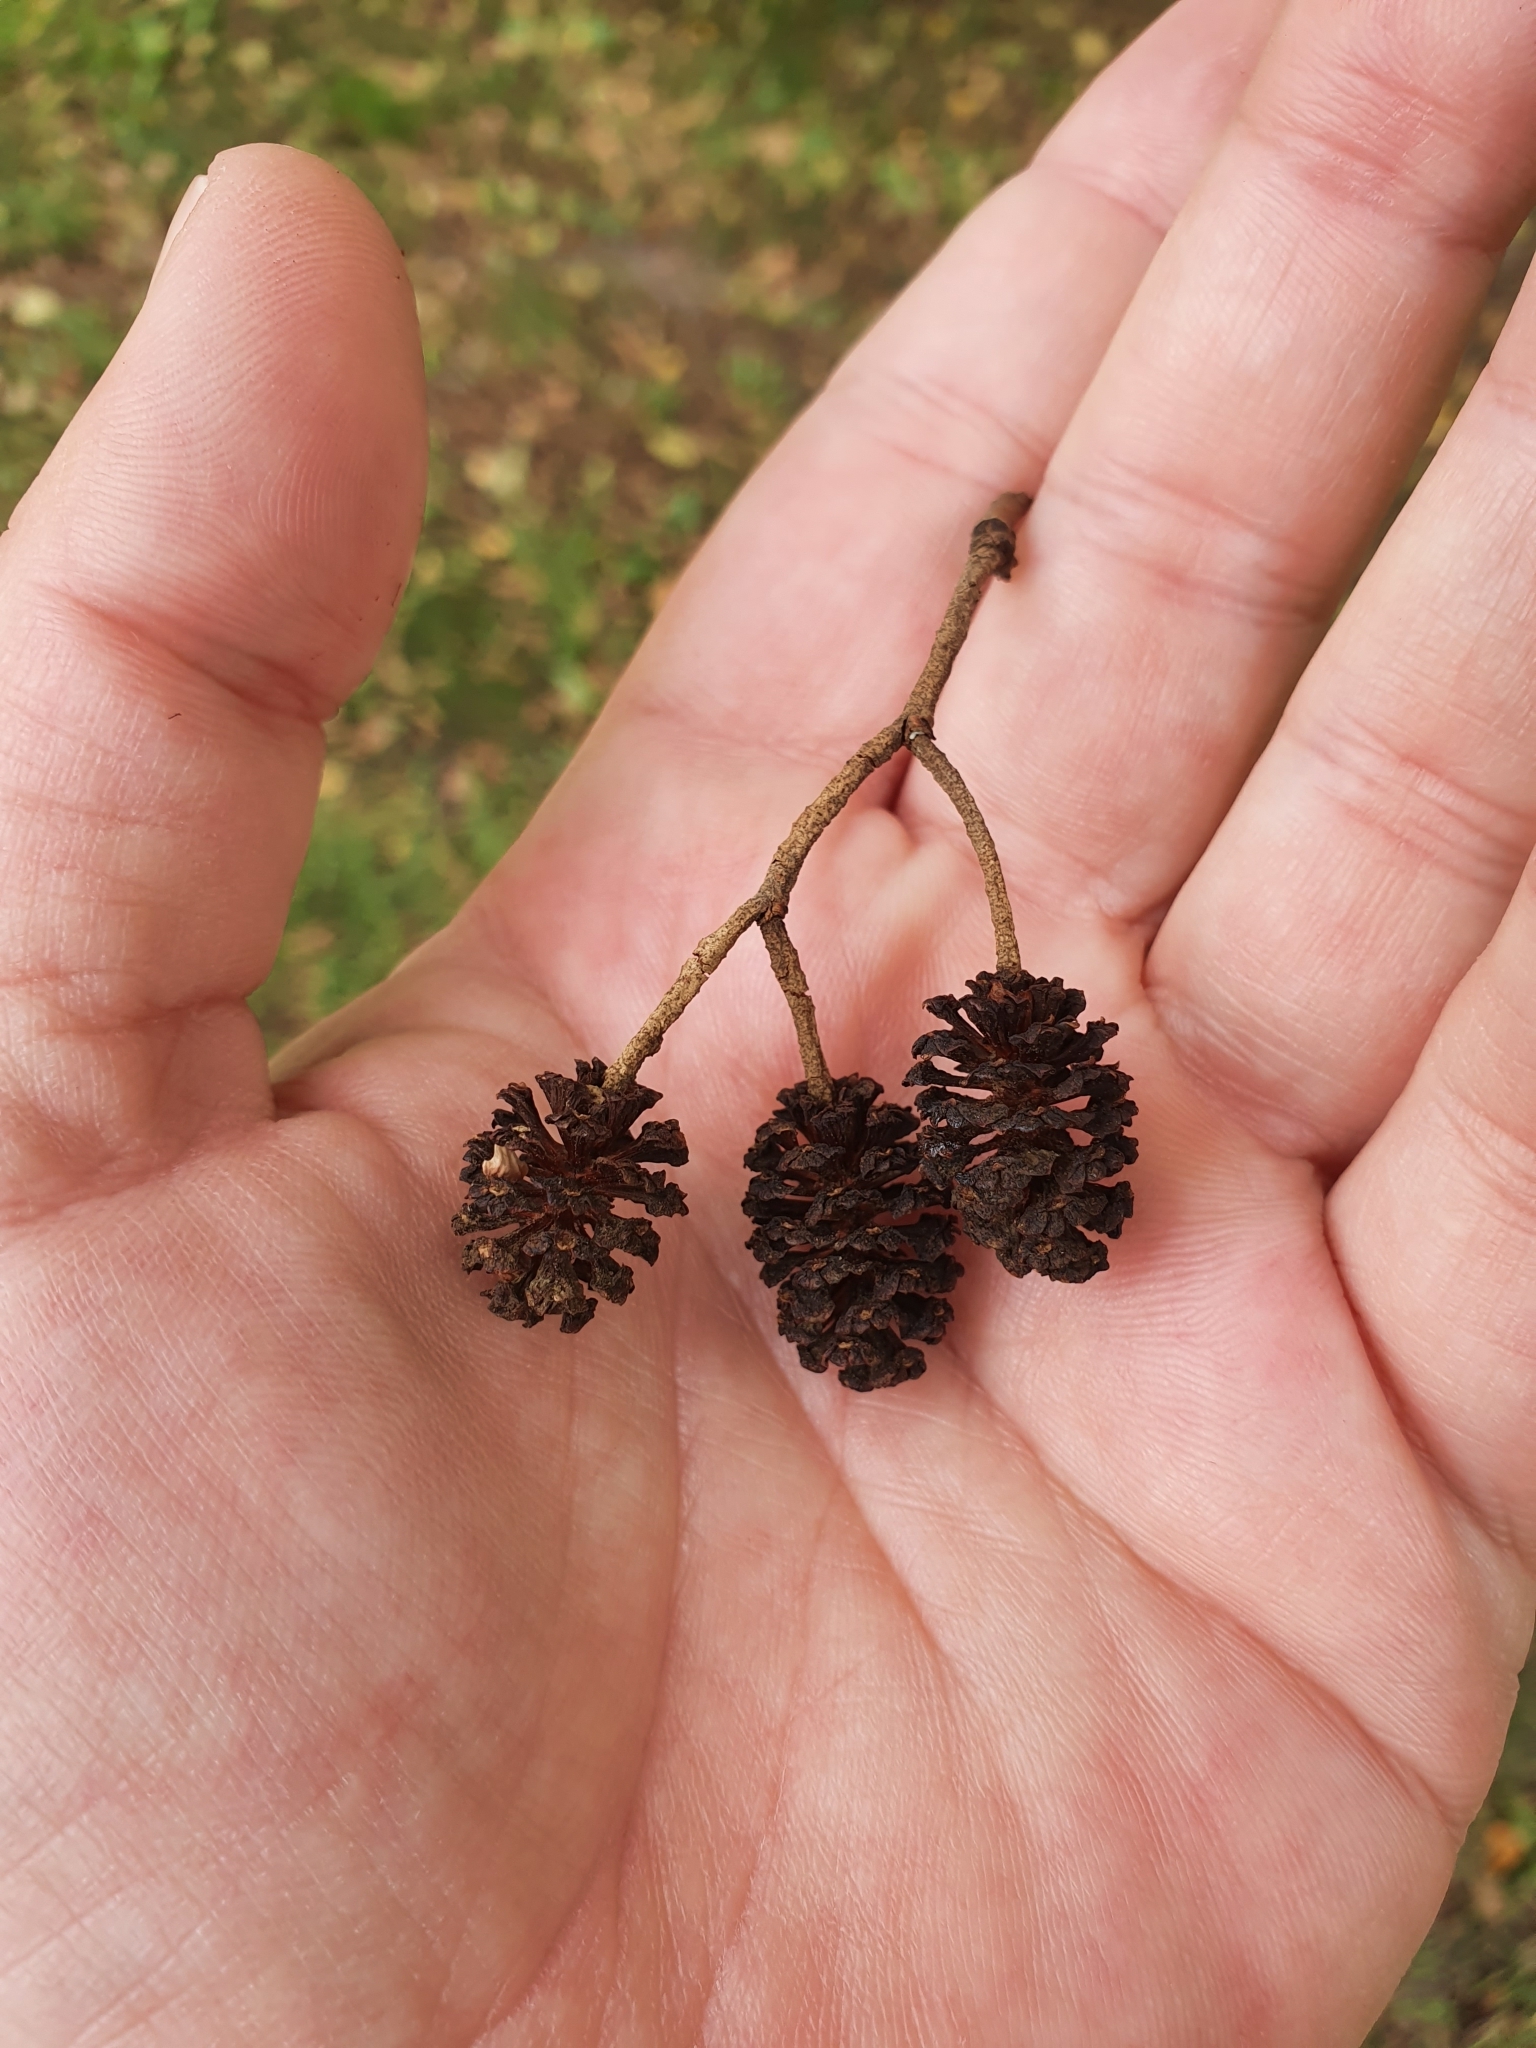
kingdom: Plantae
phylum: Tracheophyta
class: Magnoliopsida
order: Fagales
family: Betulaceae
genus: Alnus
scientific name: Alnus glutinosa
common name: Black alder
